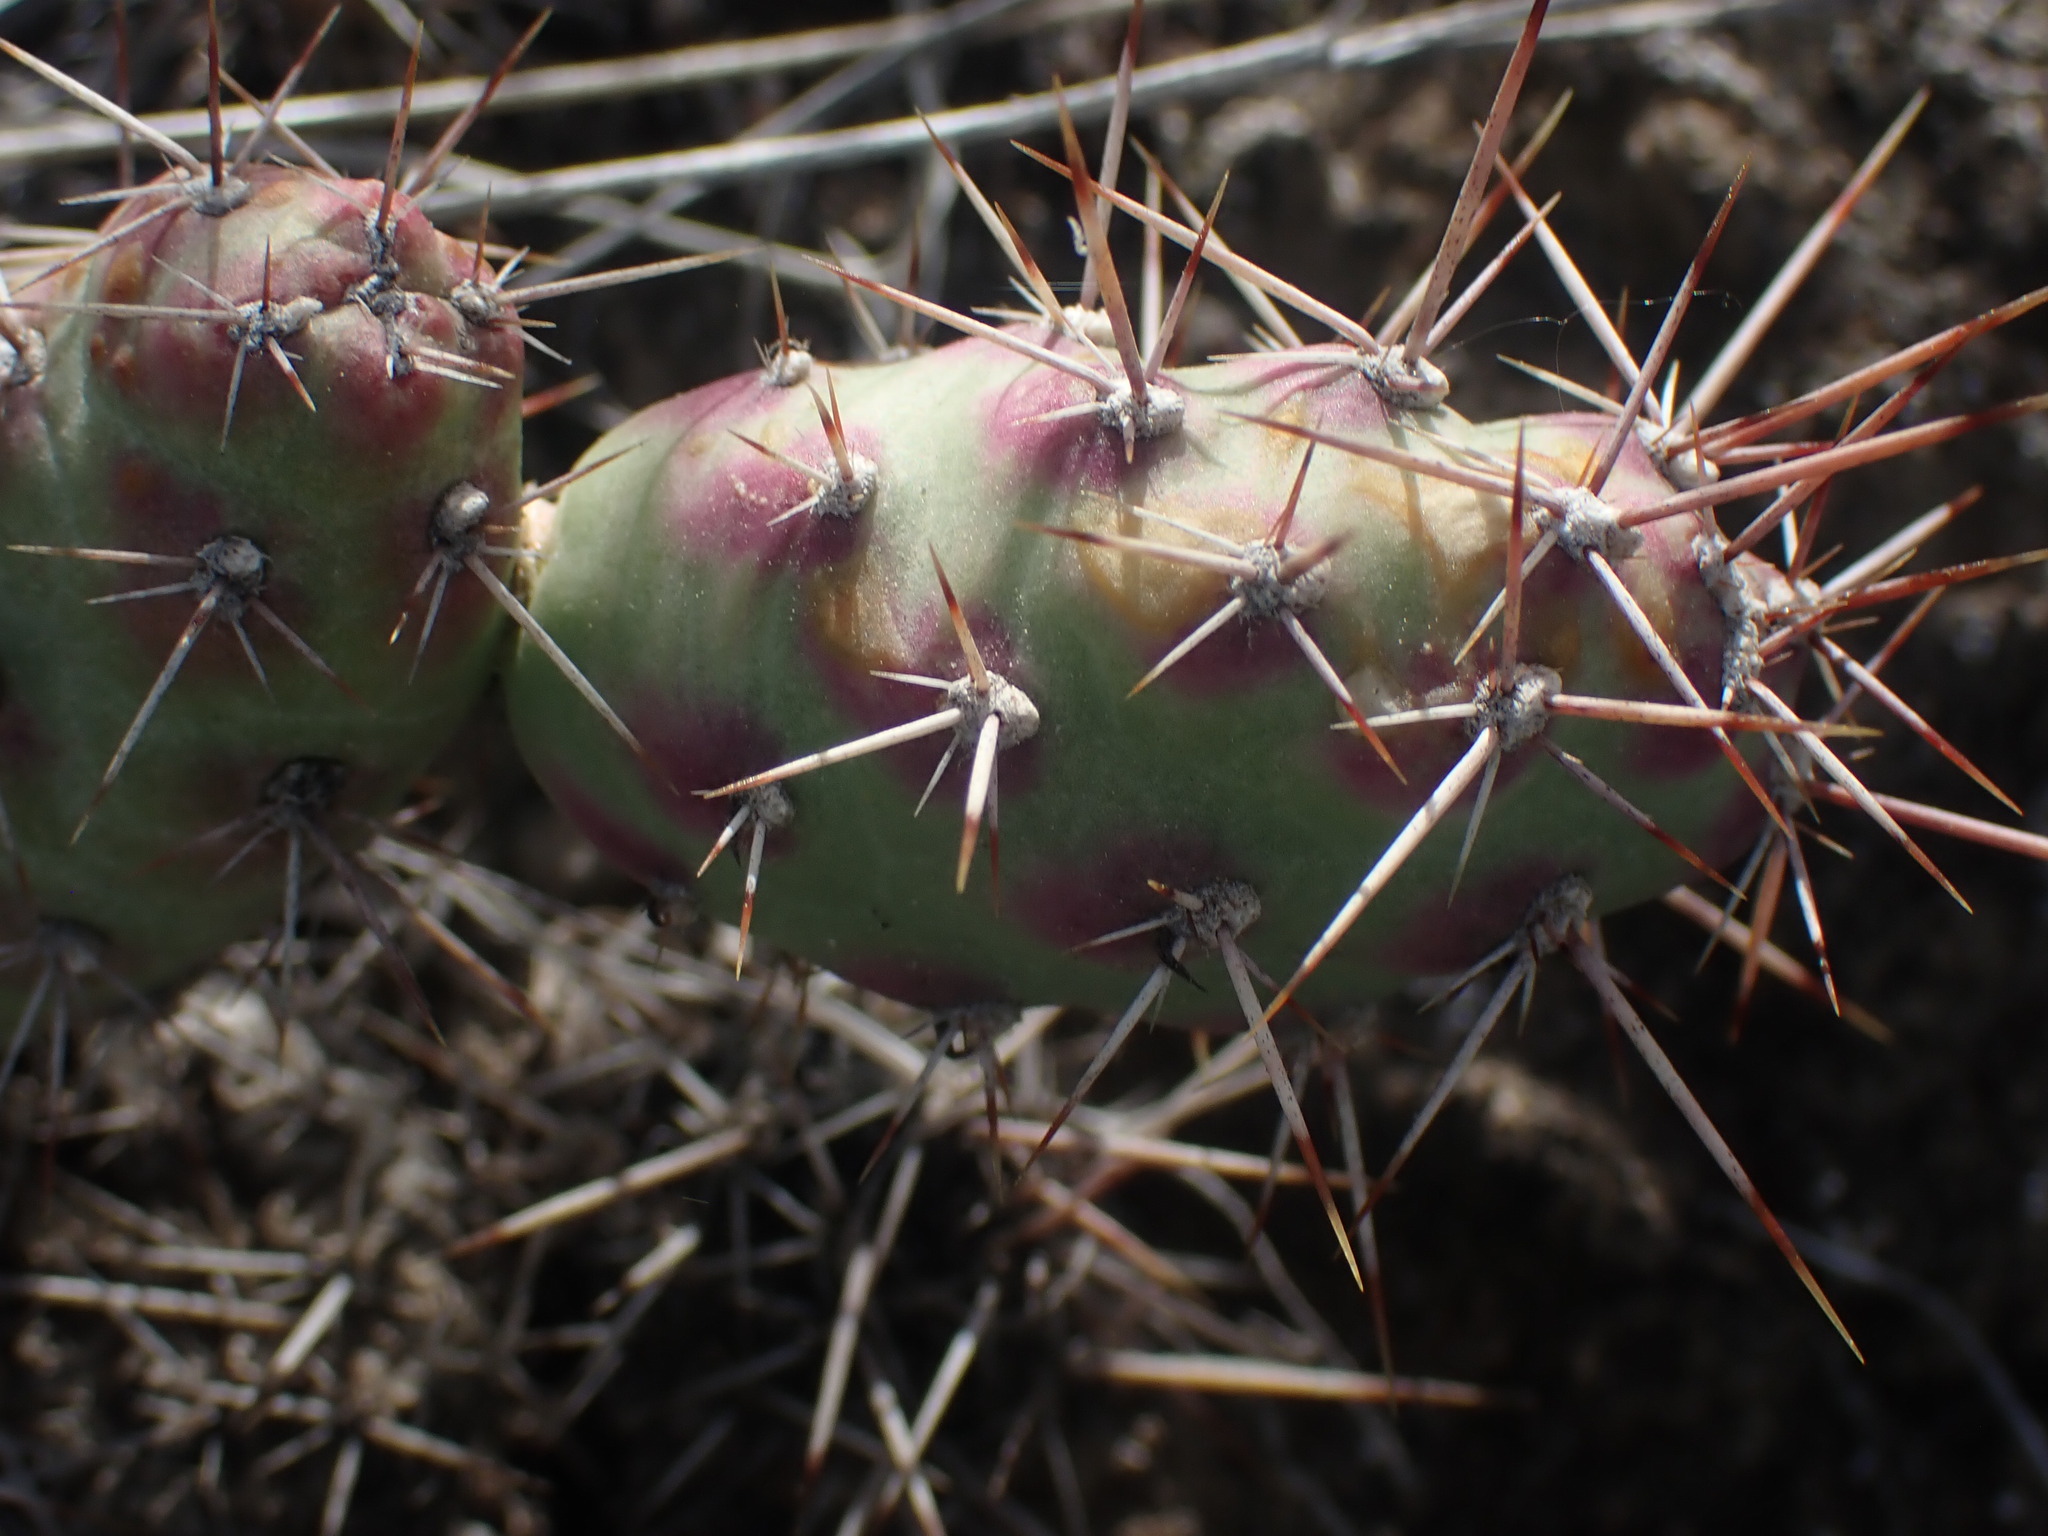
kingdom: Plantae
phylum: Tracheophyta
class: Magnoliopsida
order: Caryophyllales
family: Cactaceae
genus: Opuntia
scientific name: Opuntia fragilis
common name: Brittle cactus
